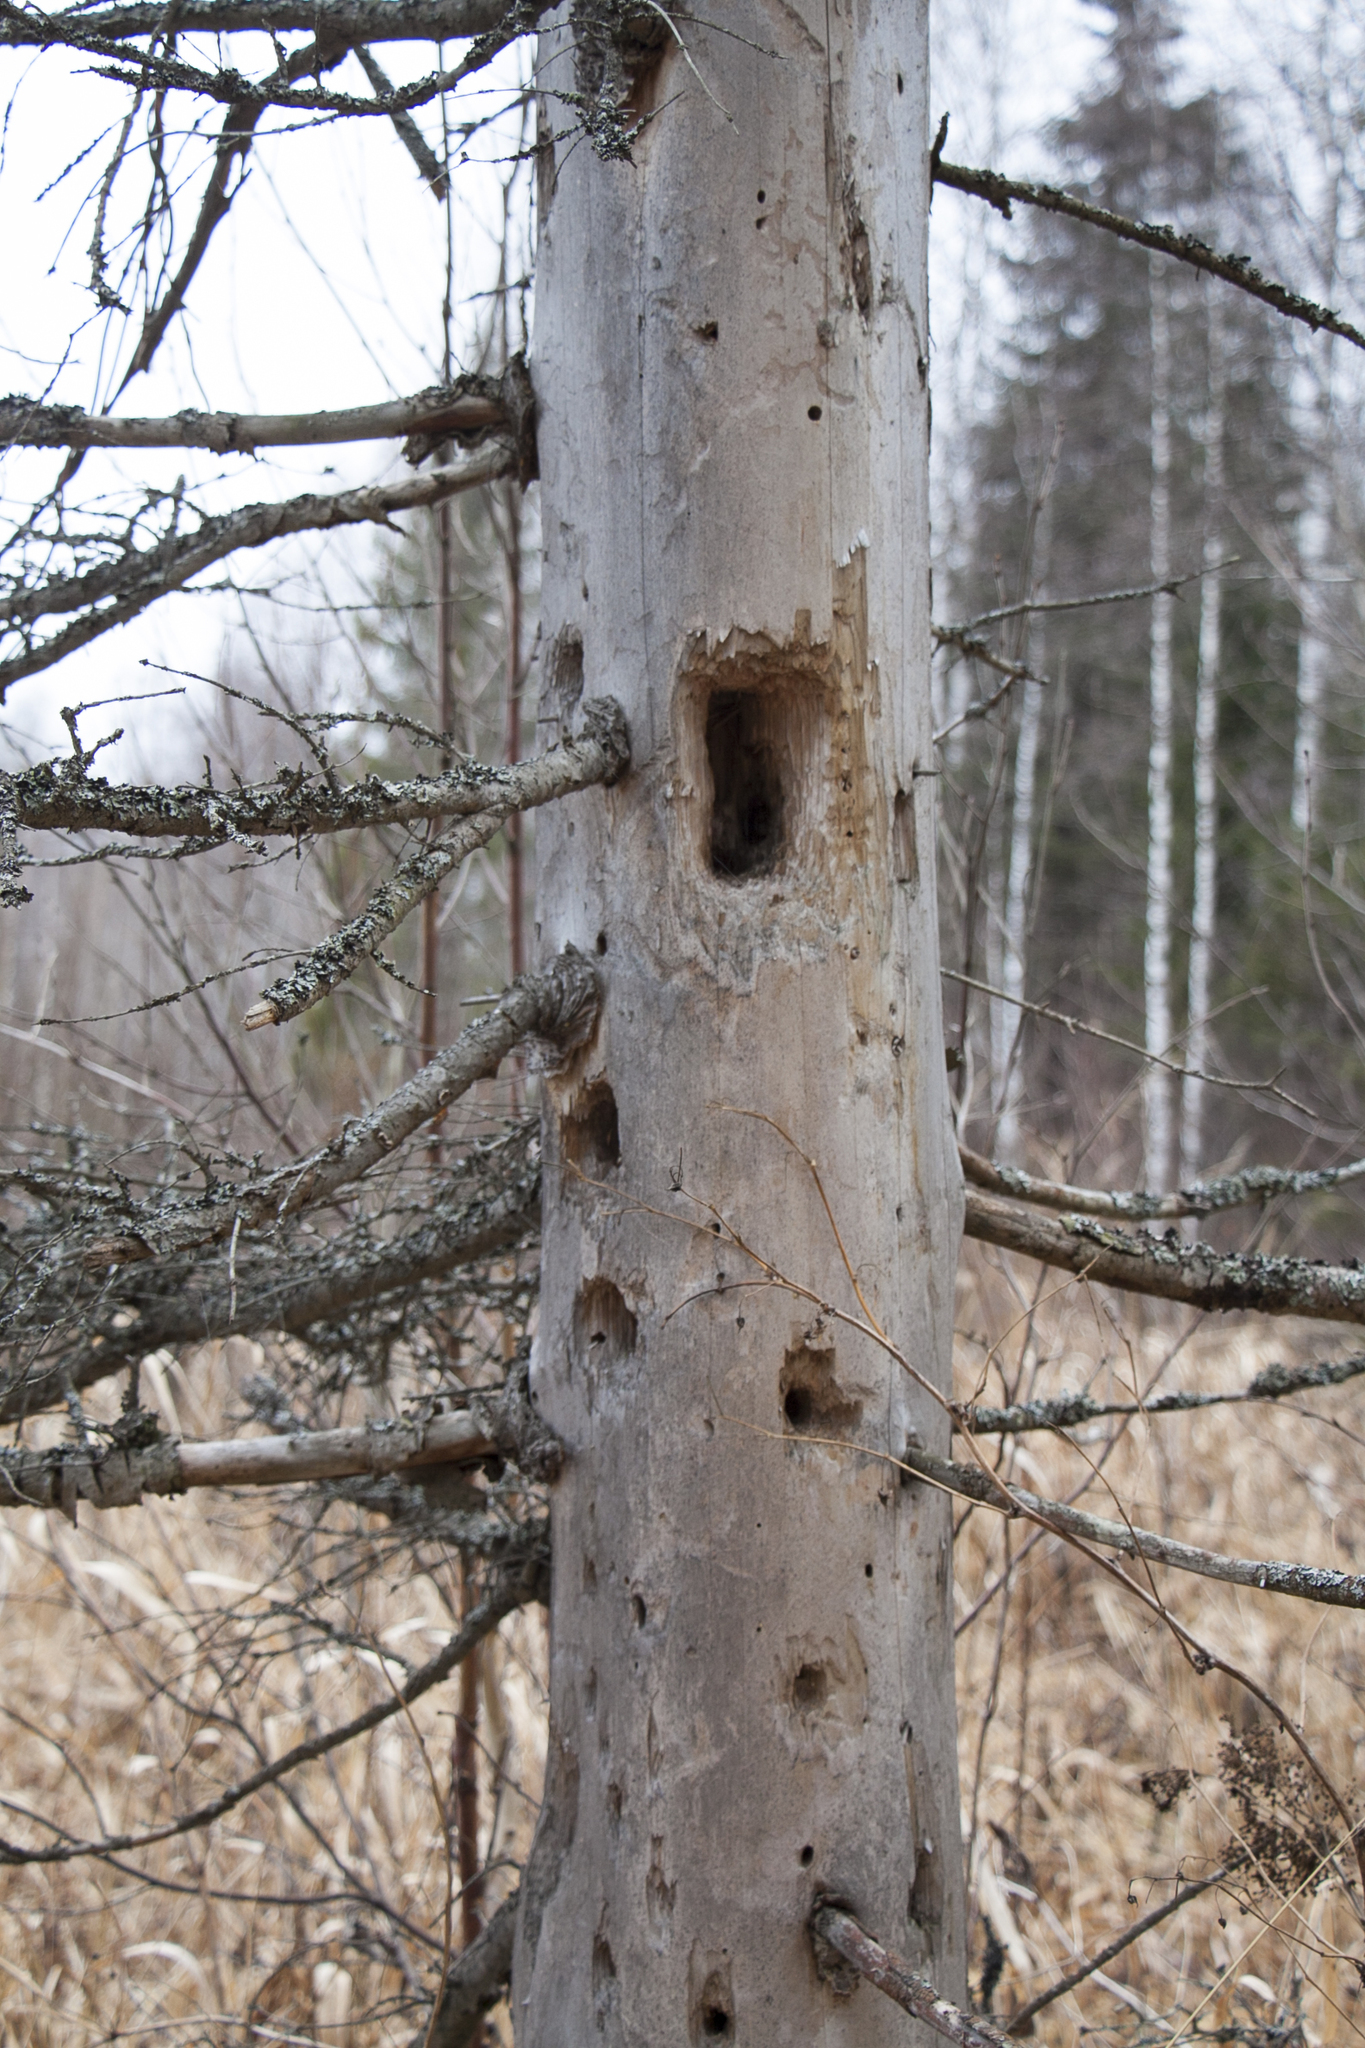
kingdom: Animalia
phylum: Chordata
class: Aves
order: Piciformes
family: Picidae
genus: Dryocopus
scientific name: Dryocopus martius
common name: Black woodpecker
